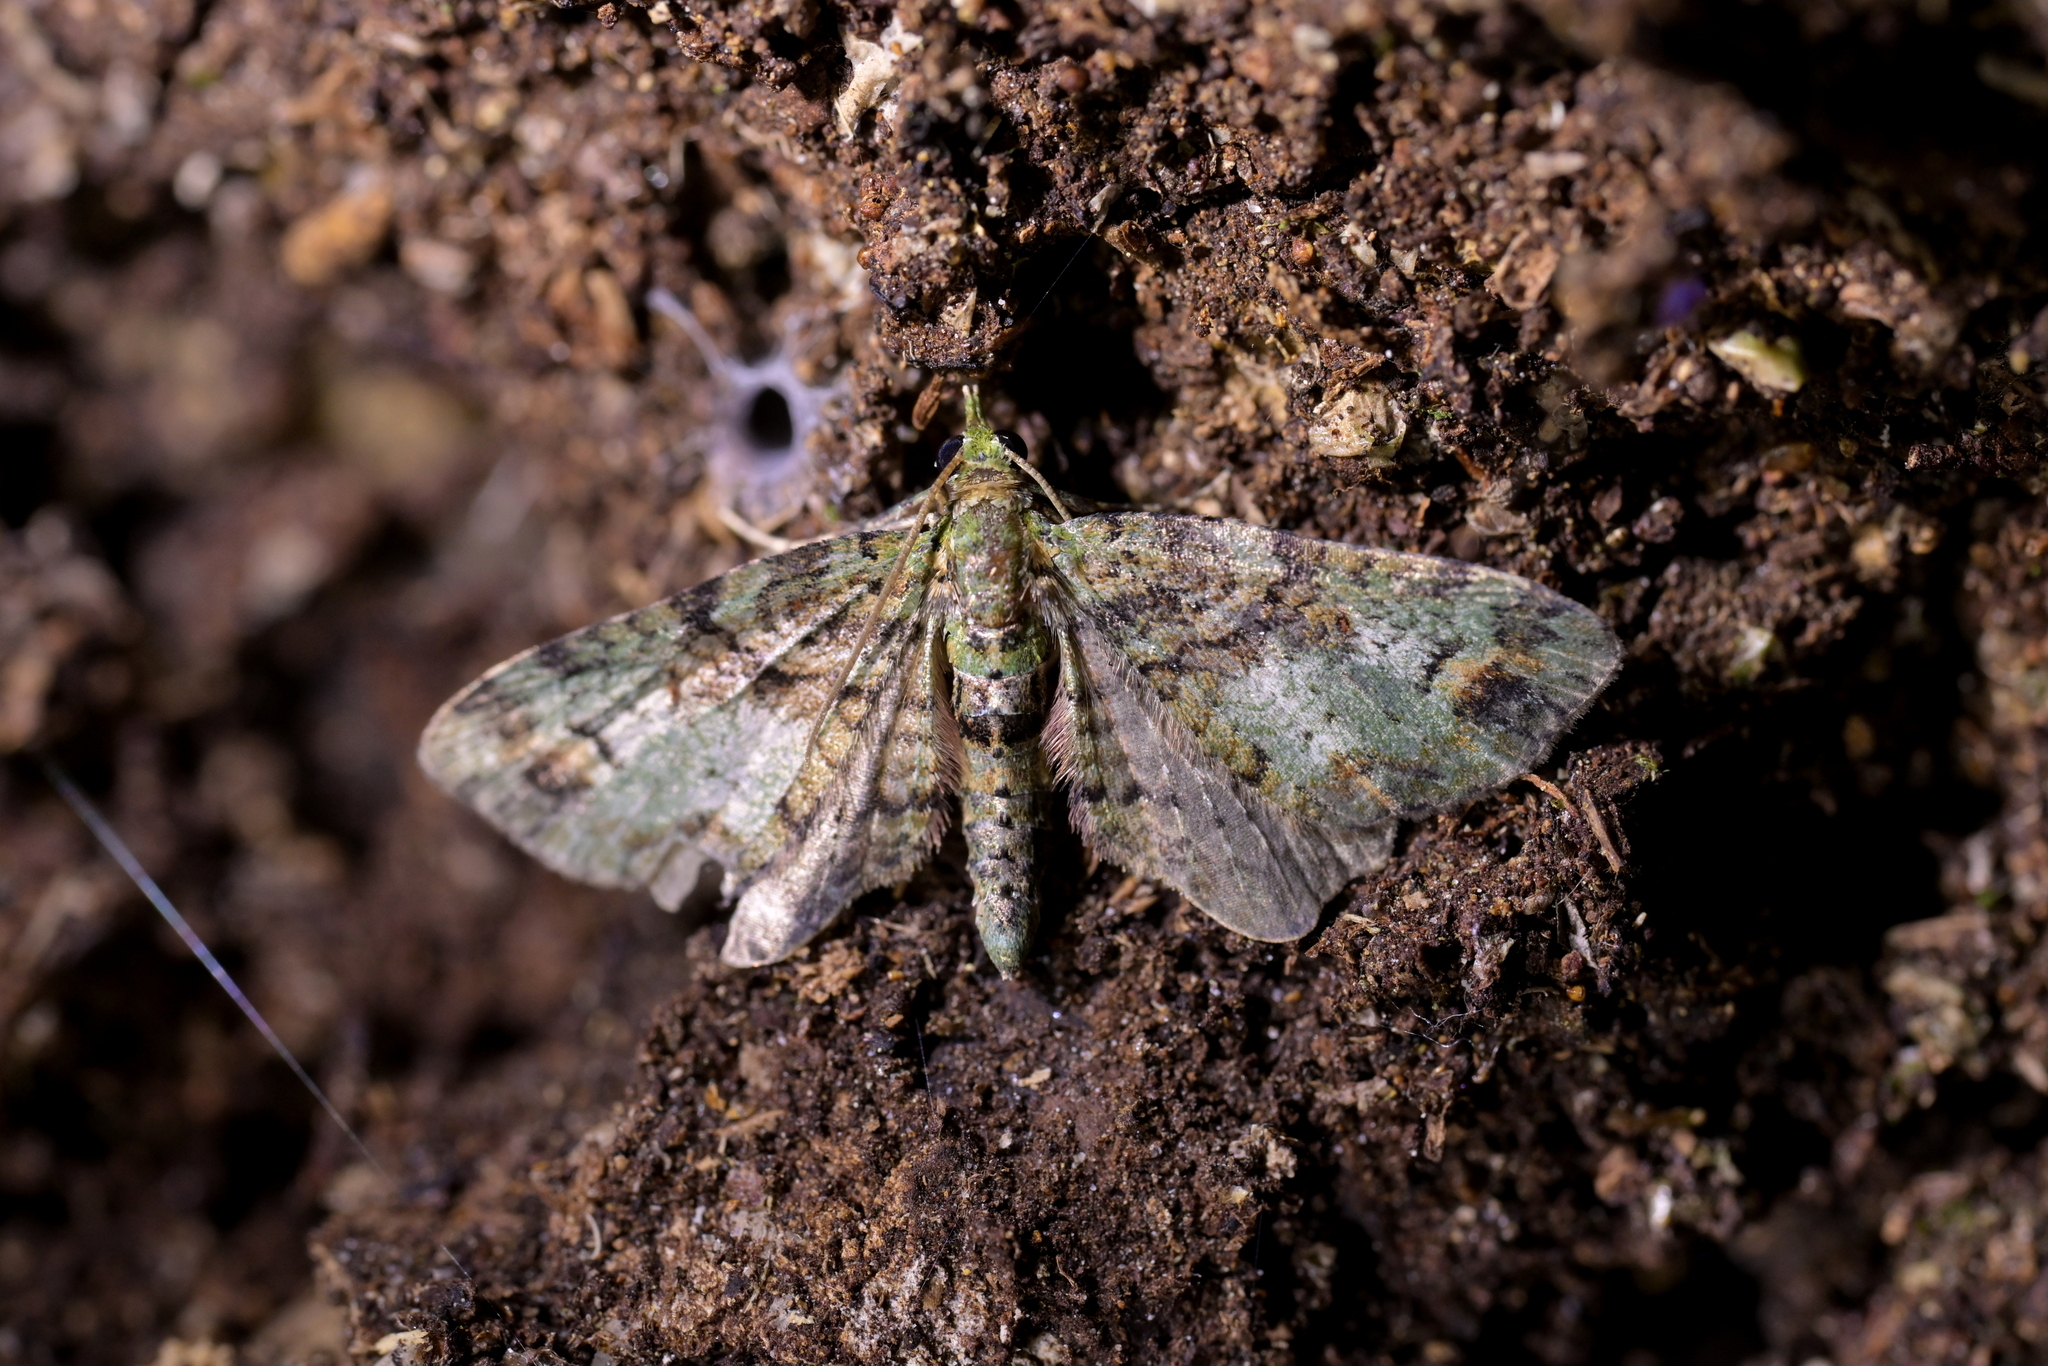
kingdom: Animalia
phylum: Arthropoda
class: Insecta
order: Lepidoptera
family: Geometridae
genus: Idaea
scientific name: Idaea mutanda
